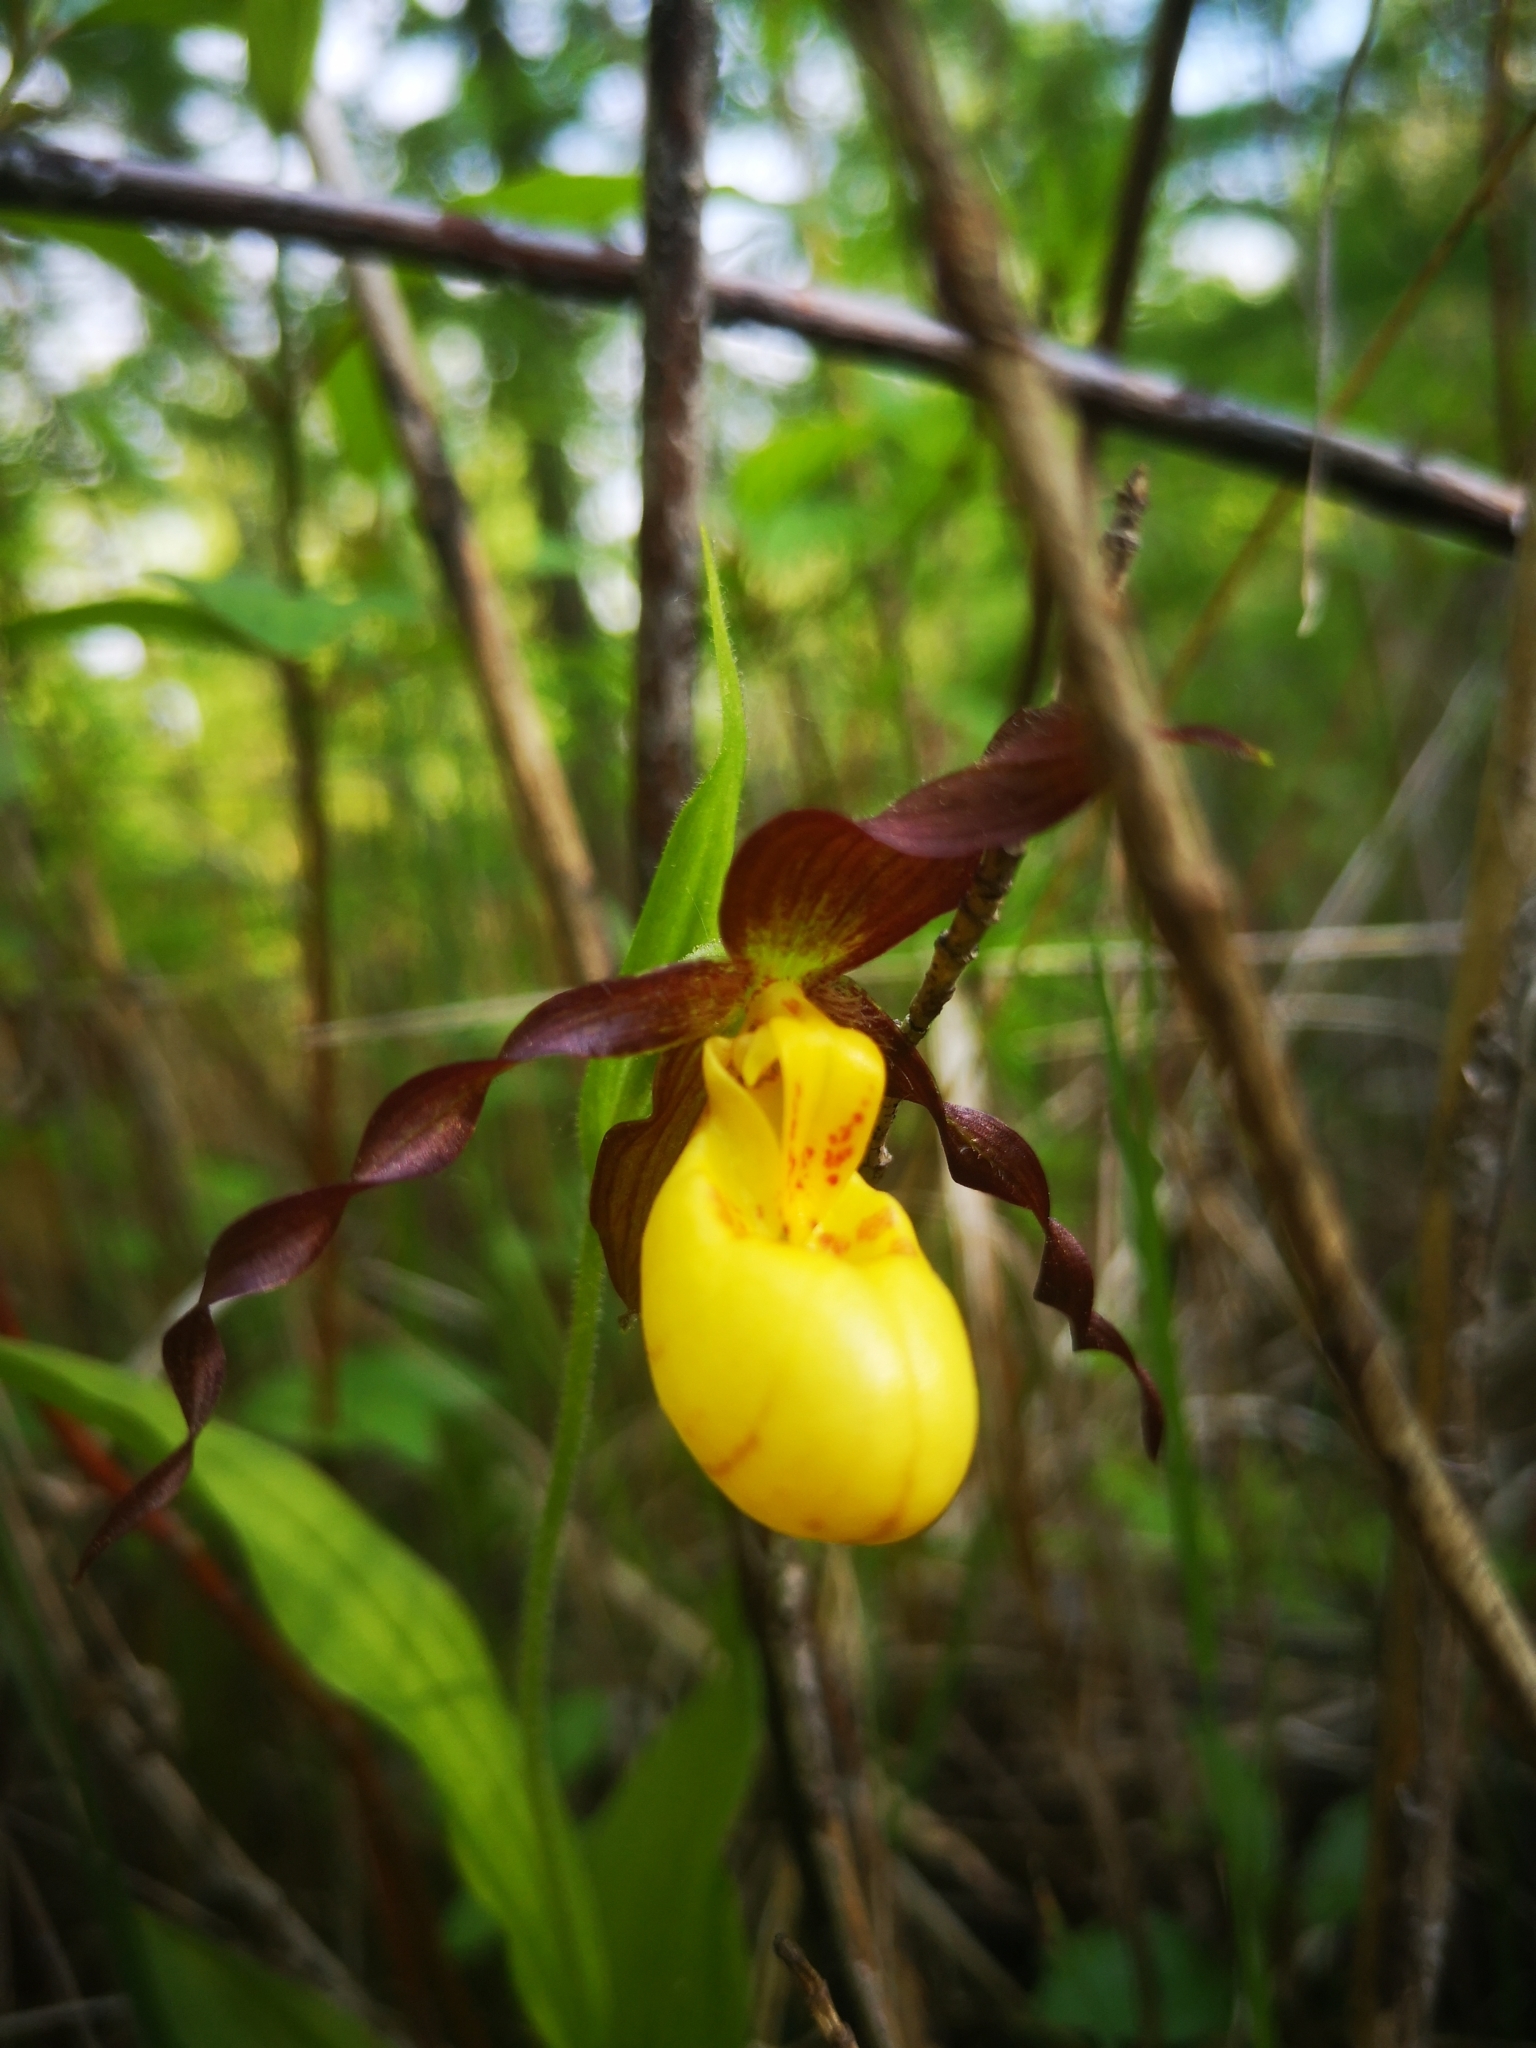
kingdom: Plantae
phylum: Tracheophyta
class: Liliopsida
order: Asparagales
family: Orchidaceae
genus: Cypripedium
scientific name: Cypripedium parviflorum
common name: American yellow lady's-slipper
